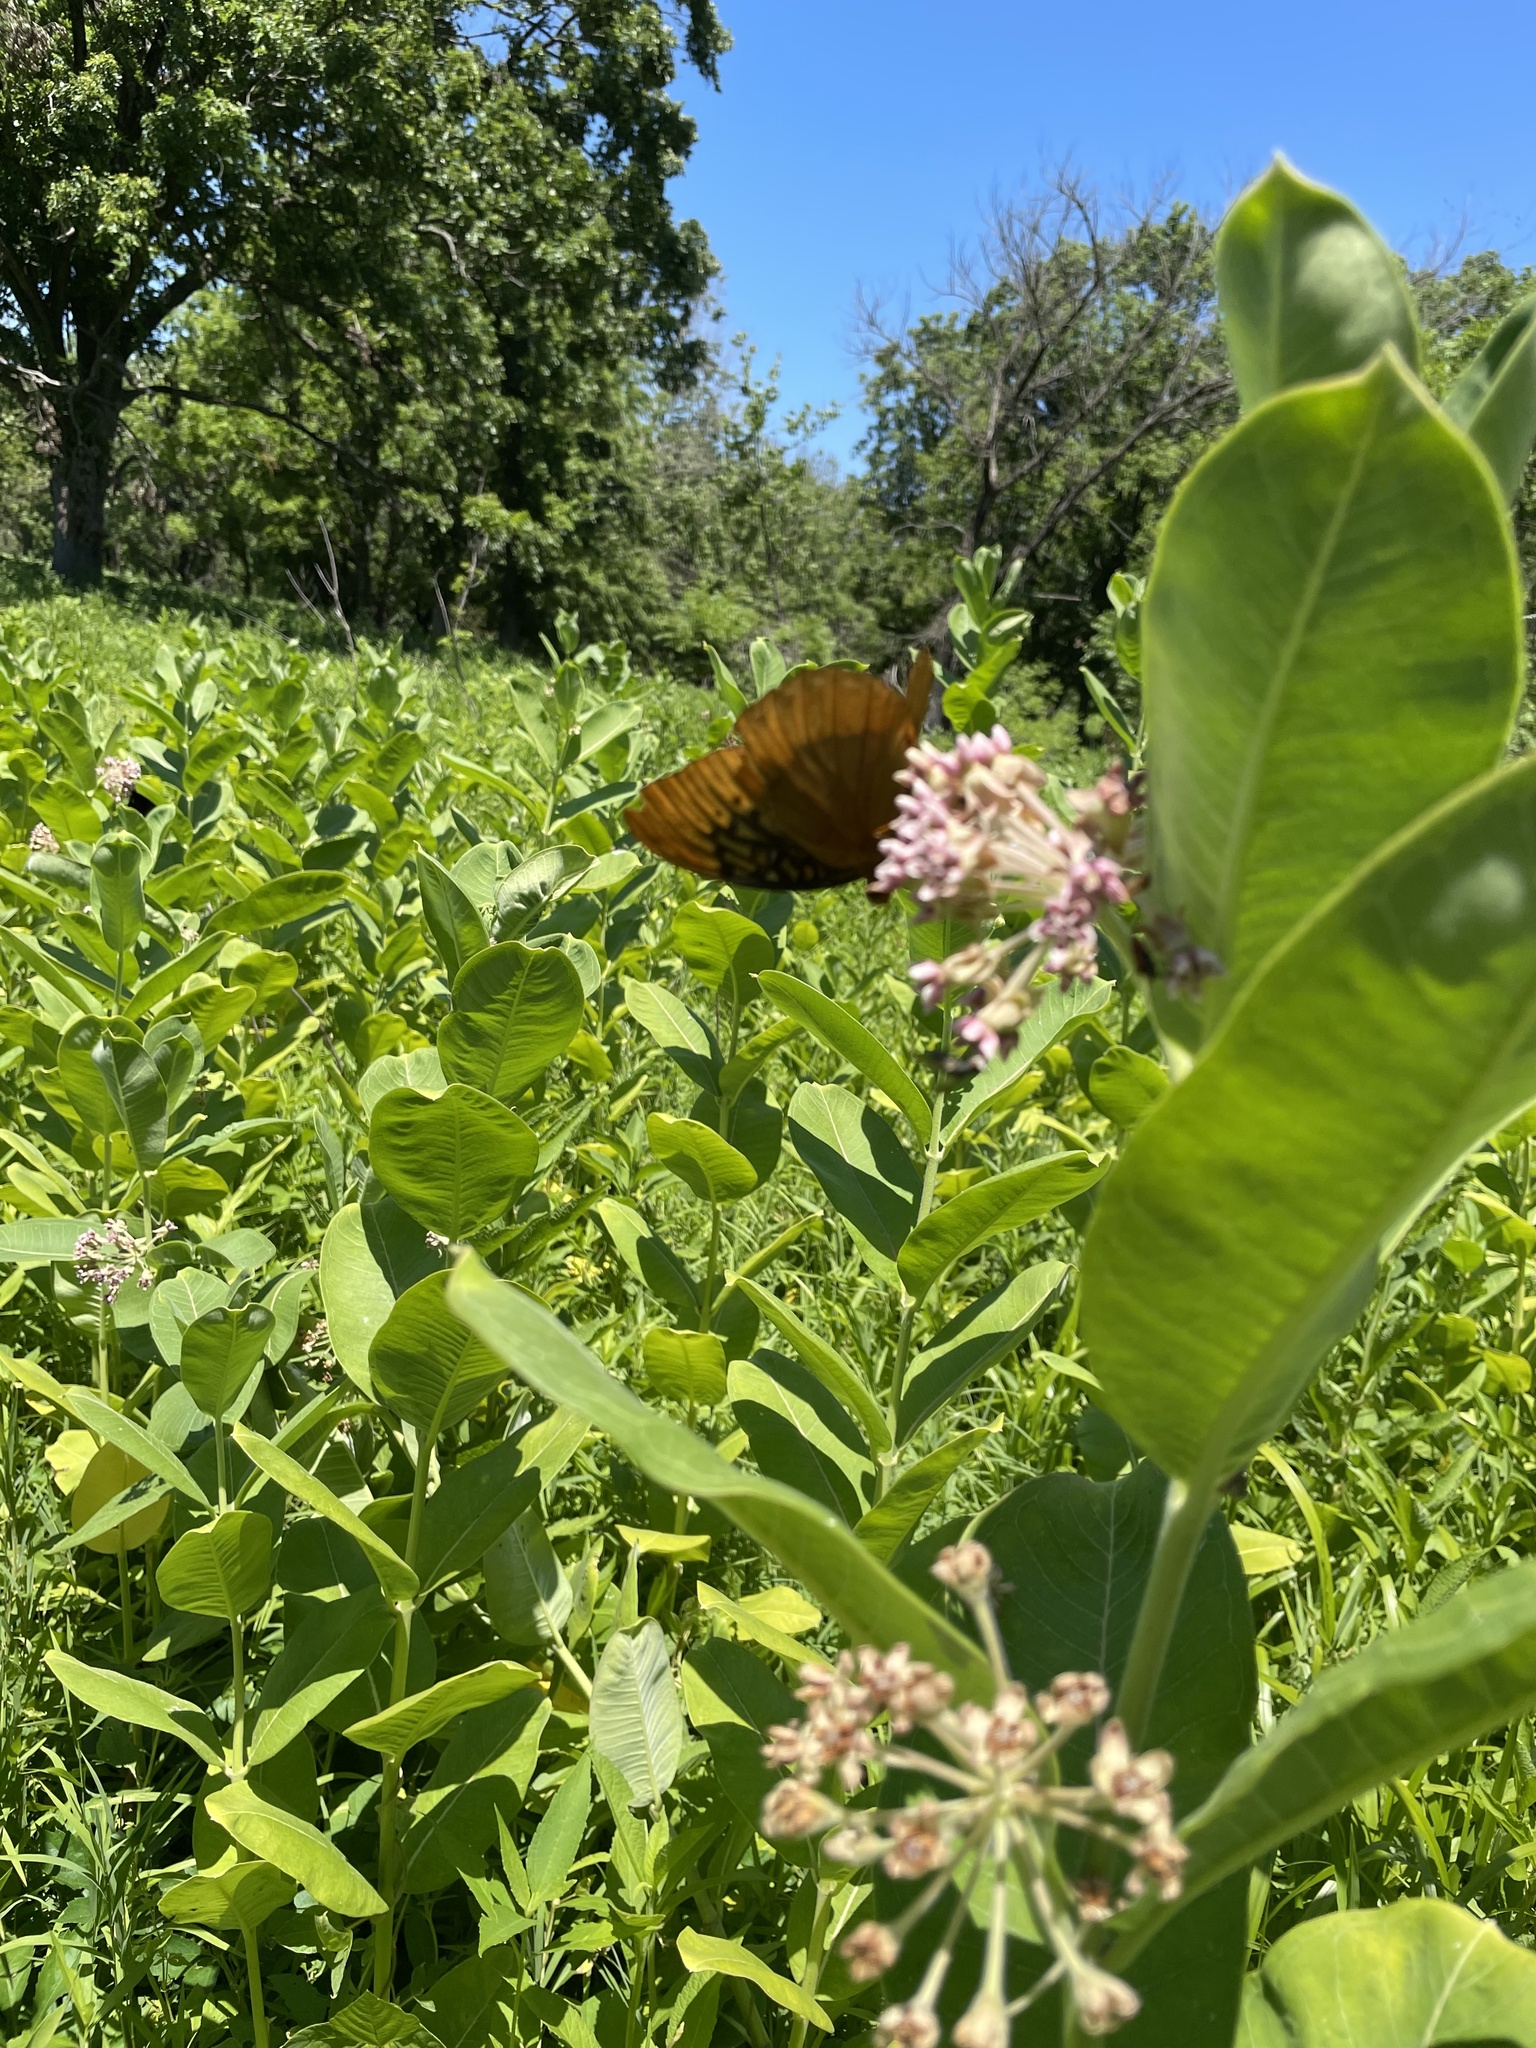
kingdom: Animalia
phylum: Arthropoda
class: Insecta
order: Lepidoptera
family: Nymphalidae
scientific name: Nymphalidae
